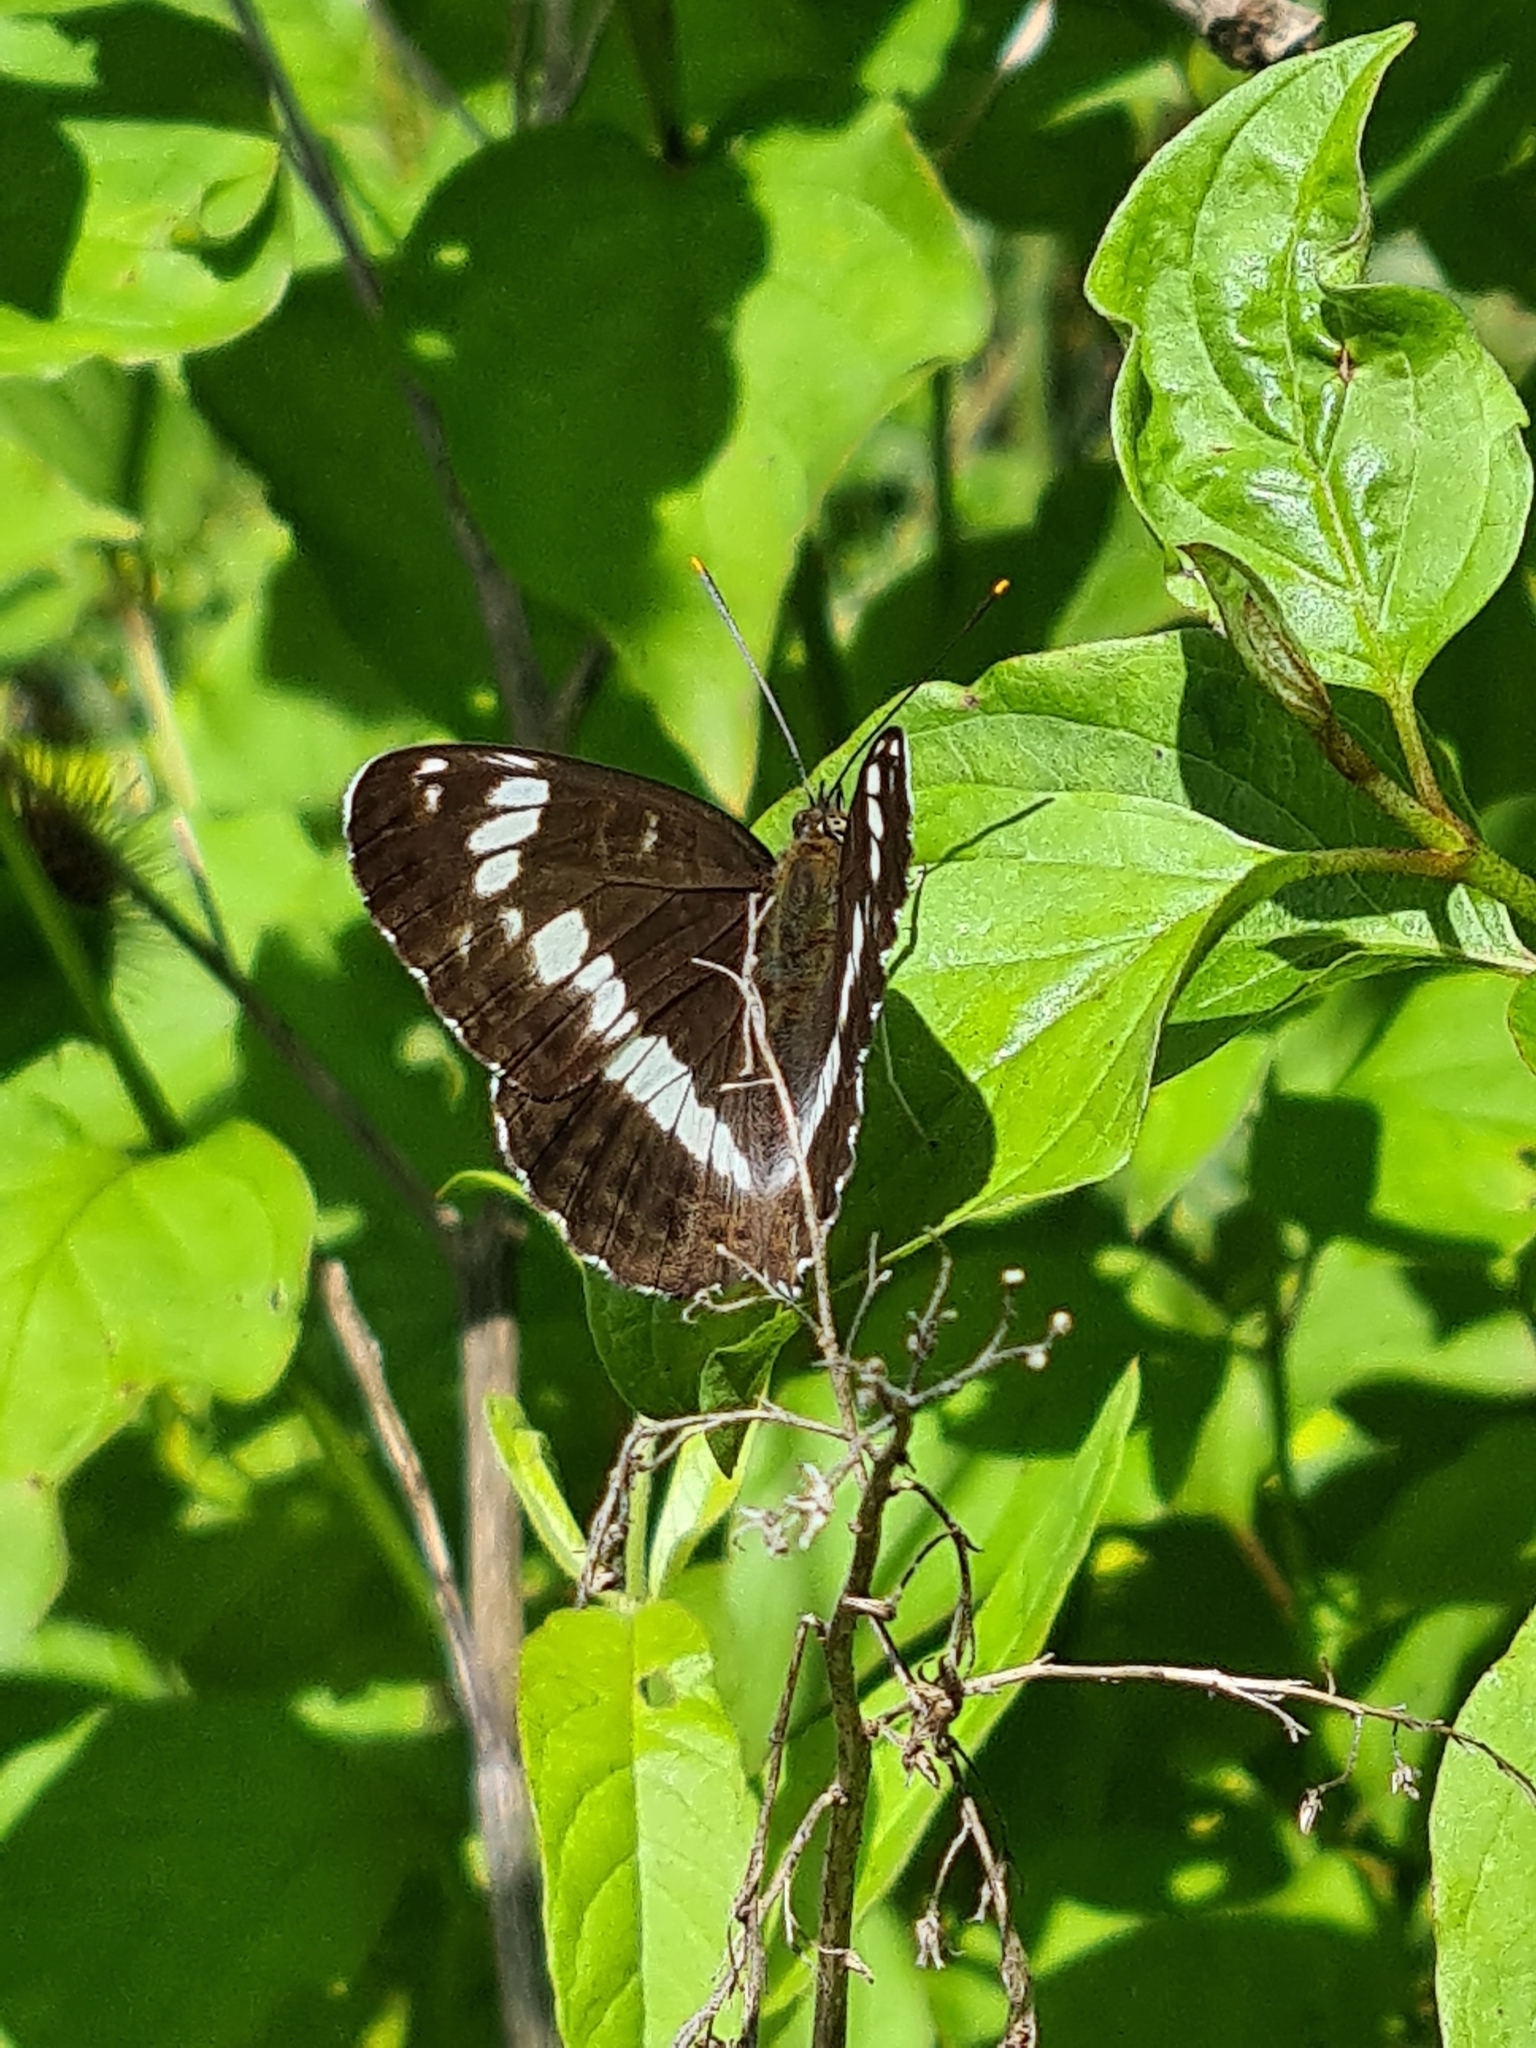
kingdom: Animalia
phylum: Arthropoda
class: Insecta
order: Lepidoptera
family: Nymphalidae
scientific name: Nymphalidae
